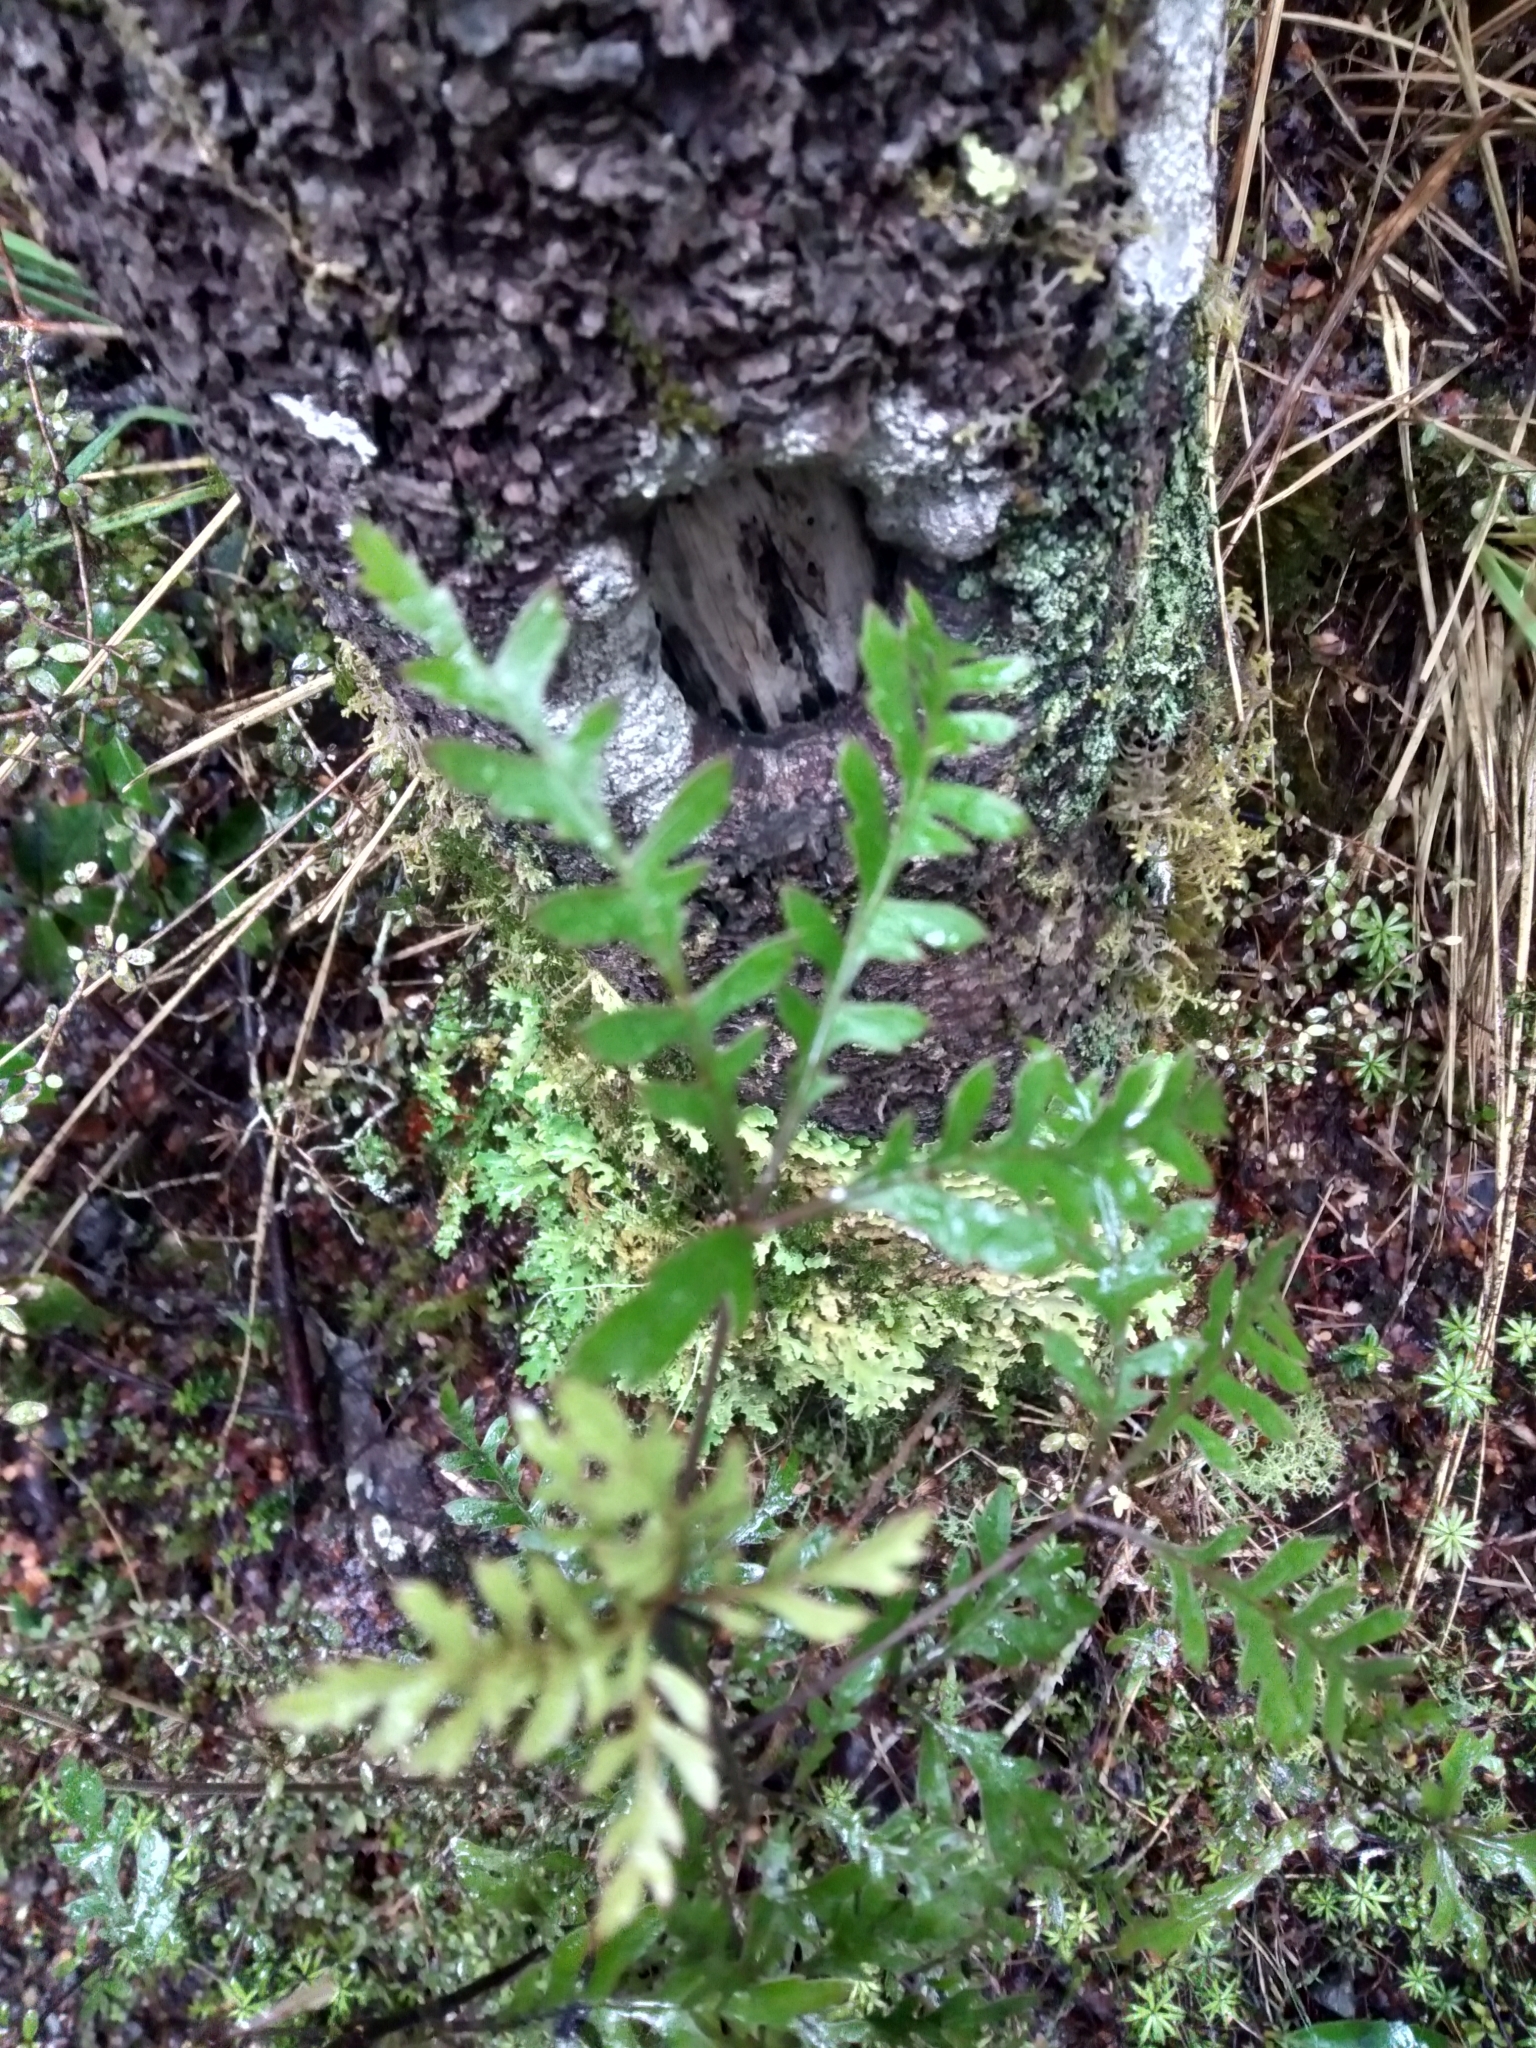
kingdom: Plantae
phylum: Tracheophyta
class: Magnoliopsida
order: Apiales
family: Araliaceae
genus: Raukaua
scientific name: Raukaua simplex
